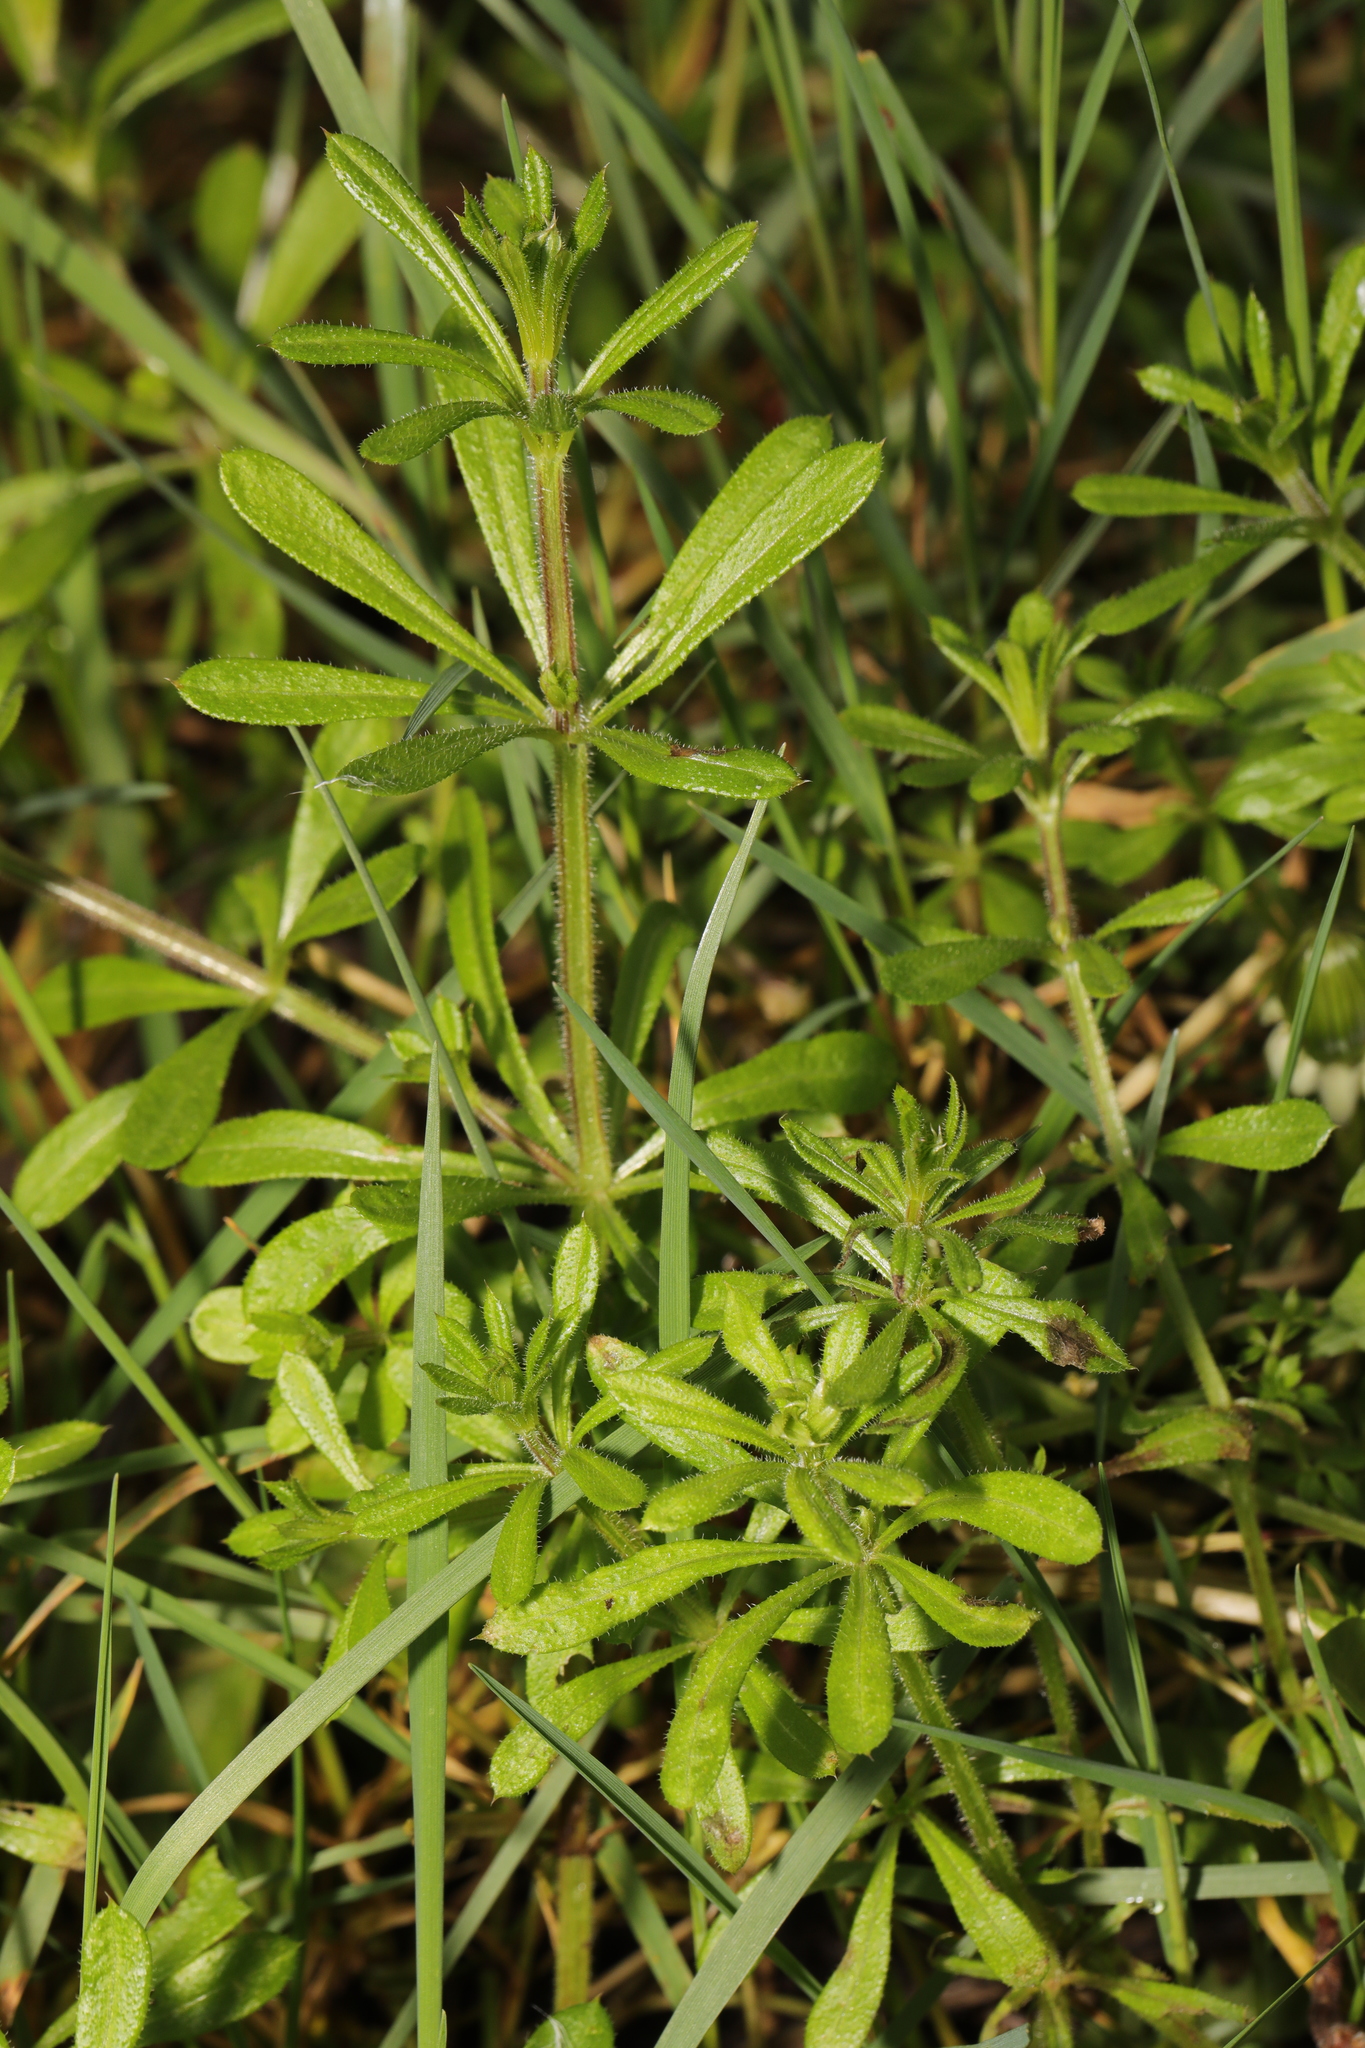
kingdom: Plantae
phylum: Tracheophyta
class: Magnoliopsida
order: Gentianales
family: Rubiaceae
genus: Galium
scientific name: Galium aparine
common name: Cleavers
